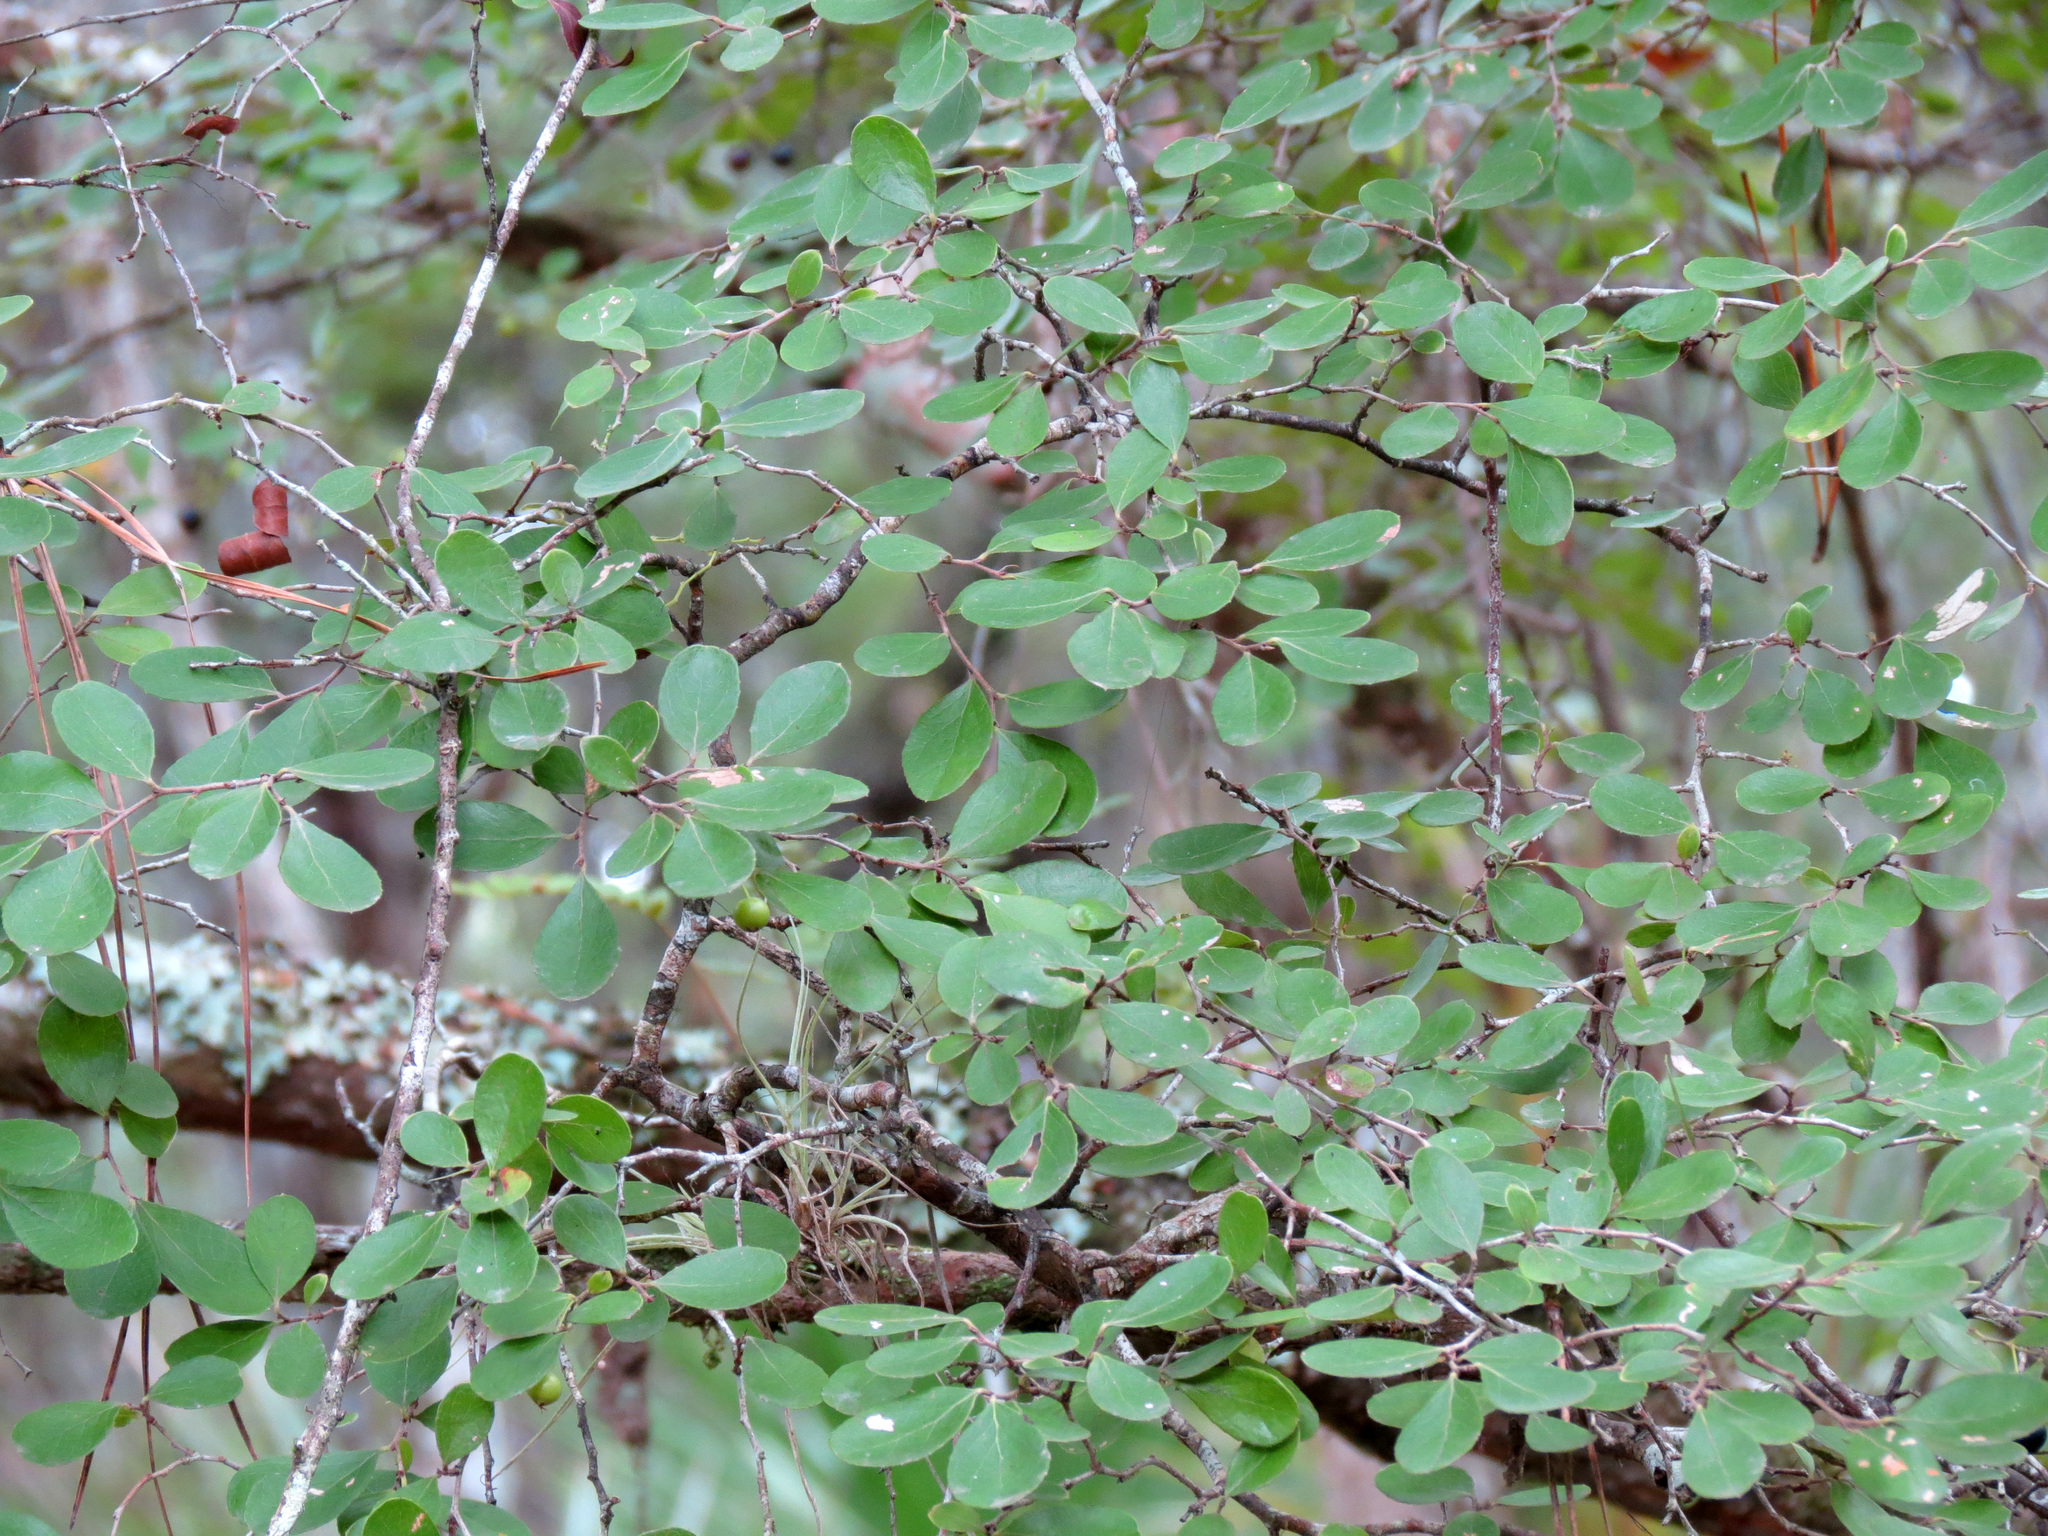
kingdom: Plantae
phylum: Tracheophyta
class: Magnoliopsida
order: Ericales
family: Ericaceae
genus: Vaccinium
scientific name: Vaccinium arboreum
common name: Farkleberry
